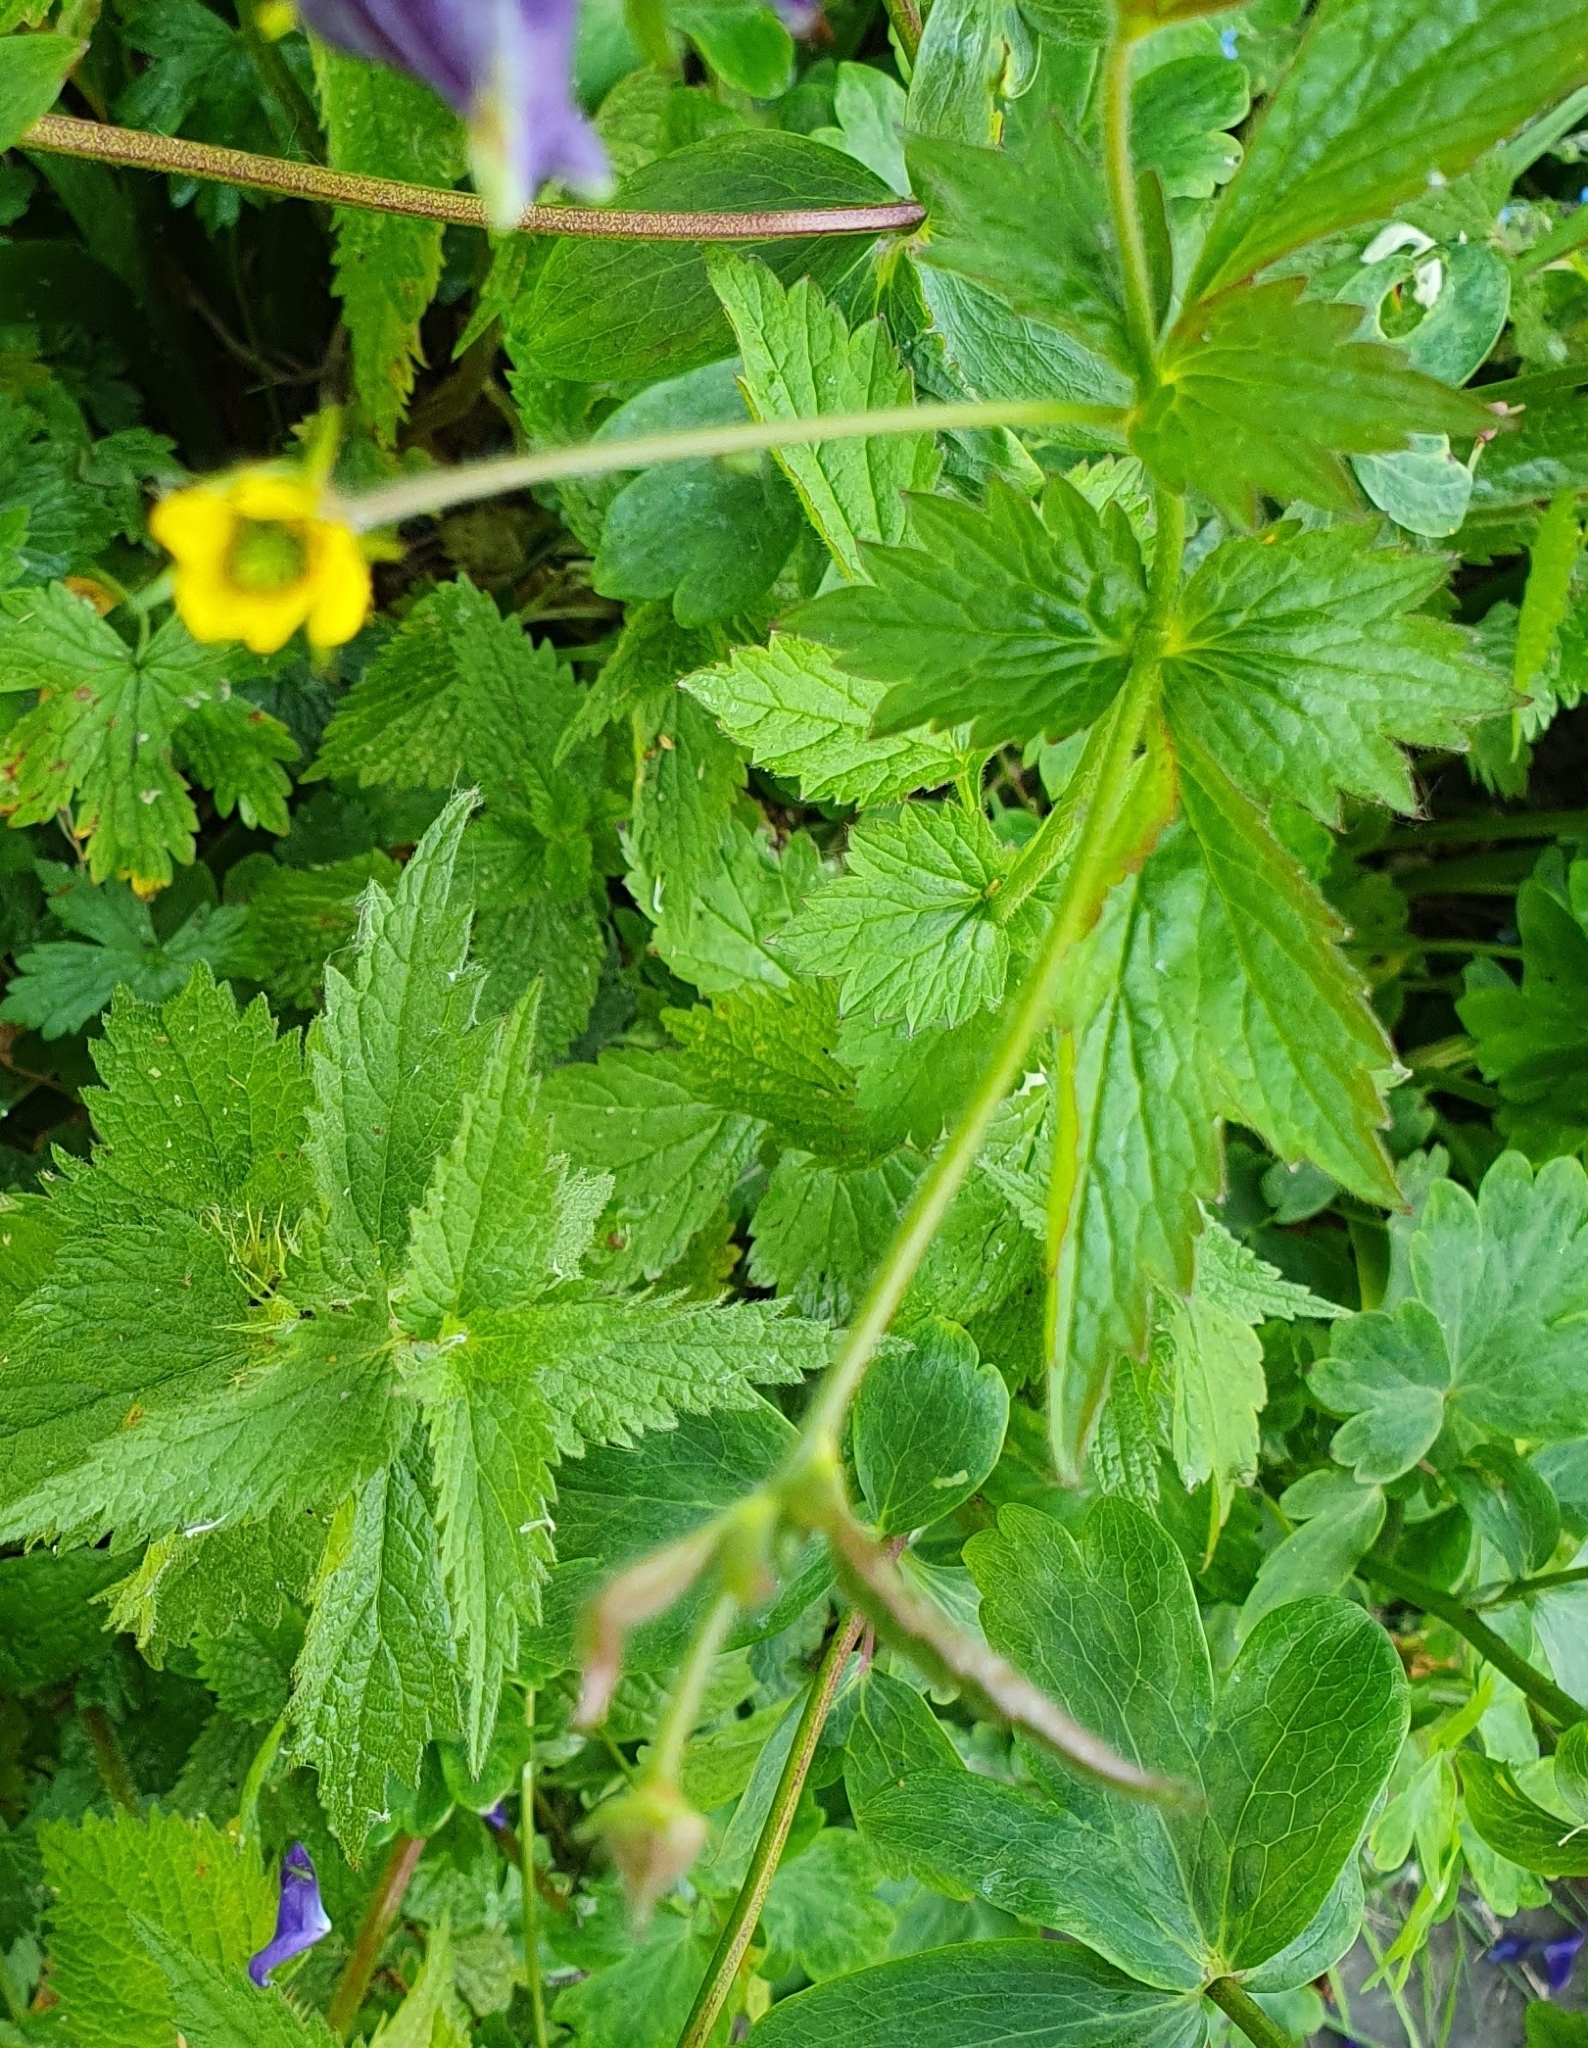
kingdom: Plantae
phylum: Tracheophyta
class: Magnoliopsida
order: Rosales
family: Rosaceae
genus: Geum
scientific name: Geum urbanum
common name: Wood avens
